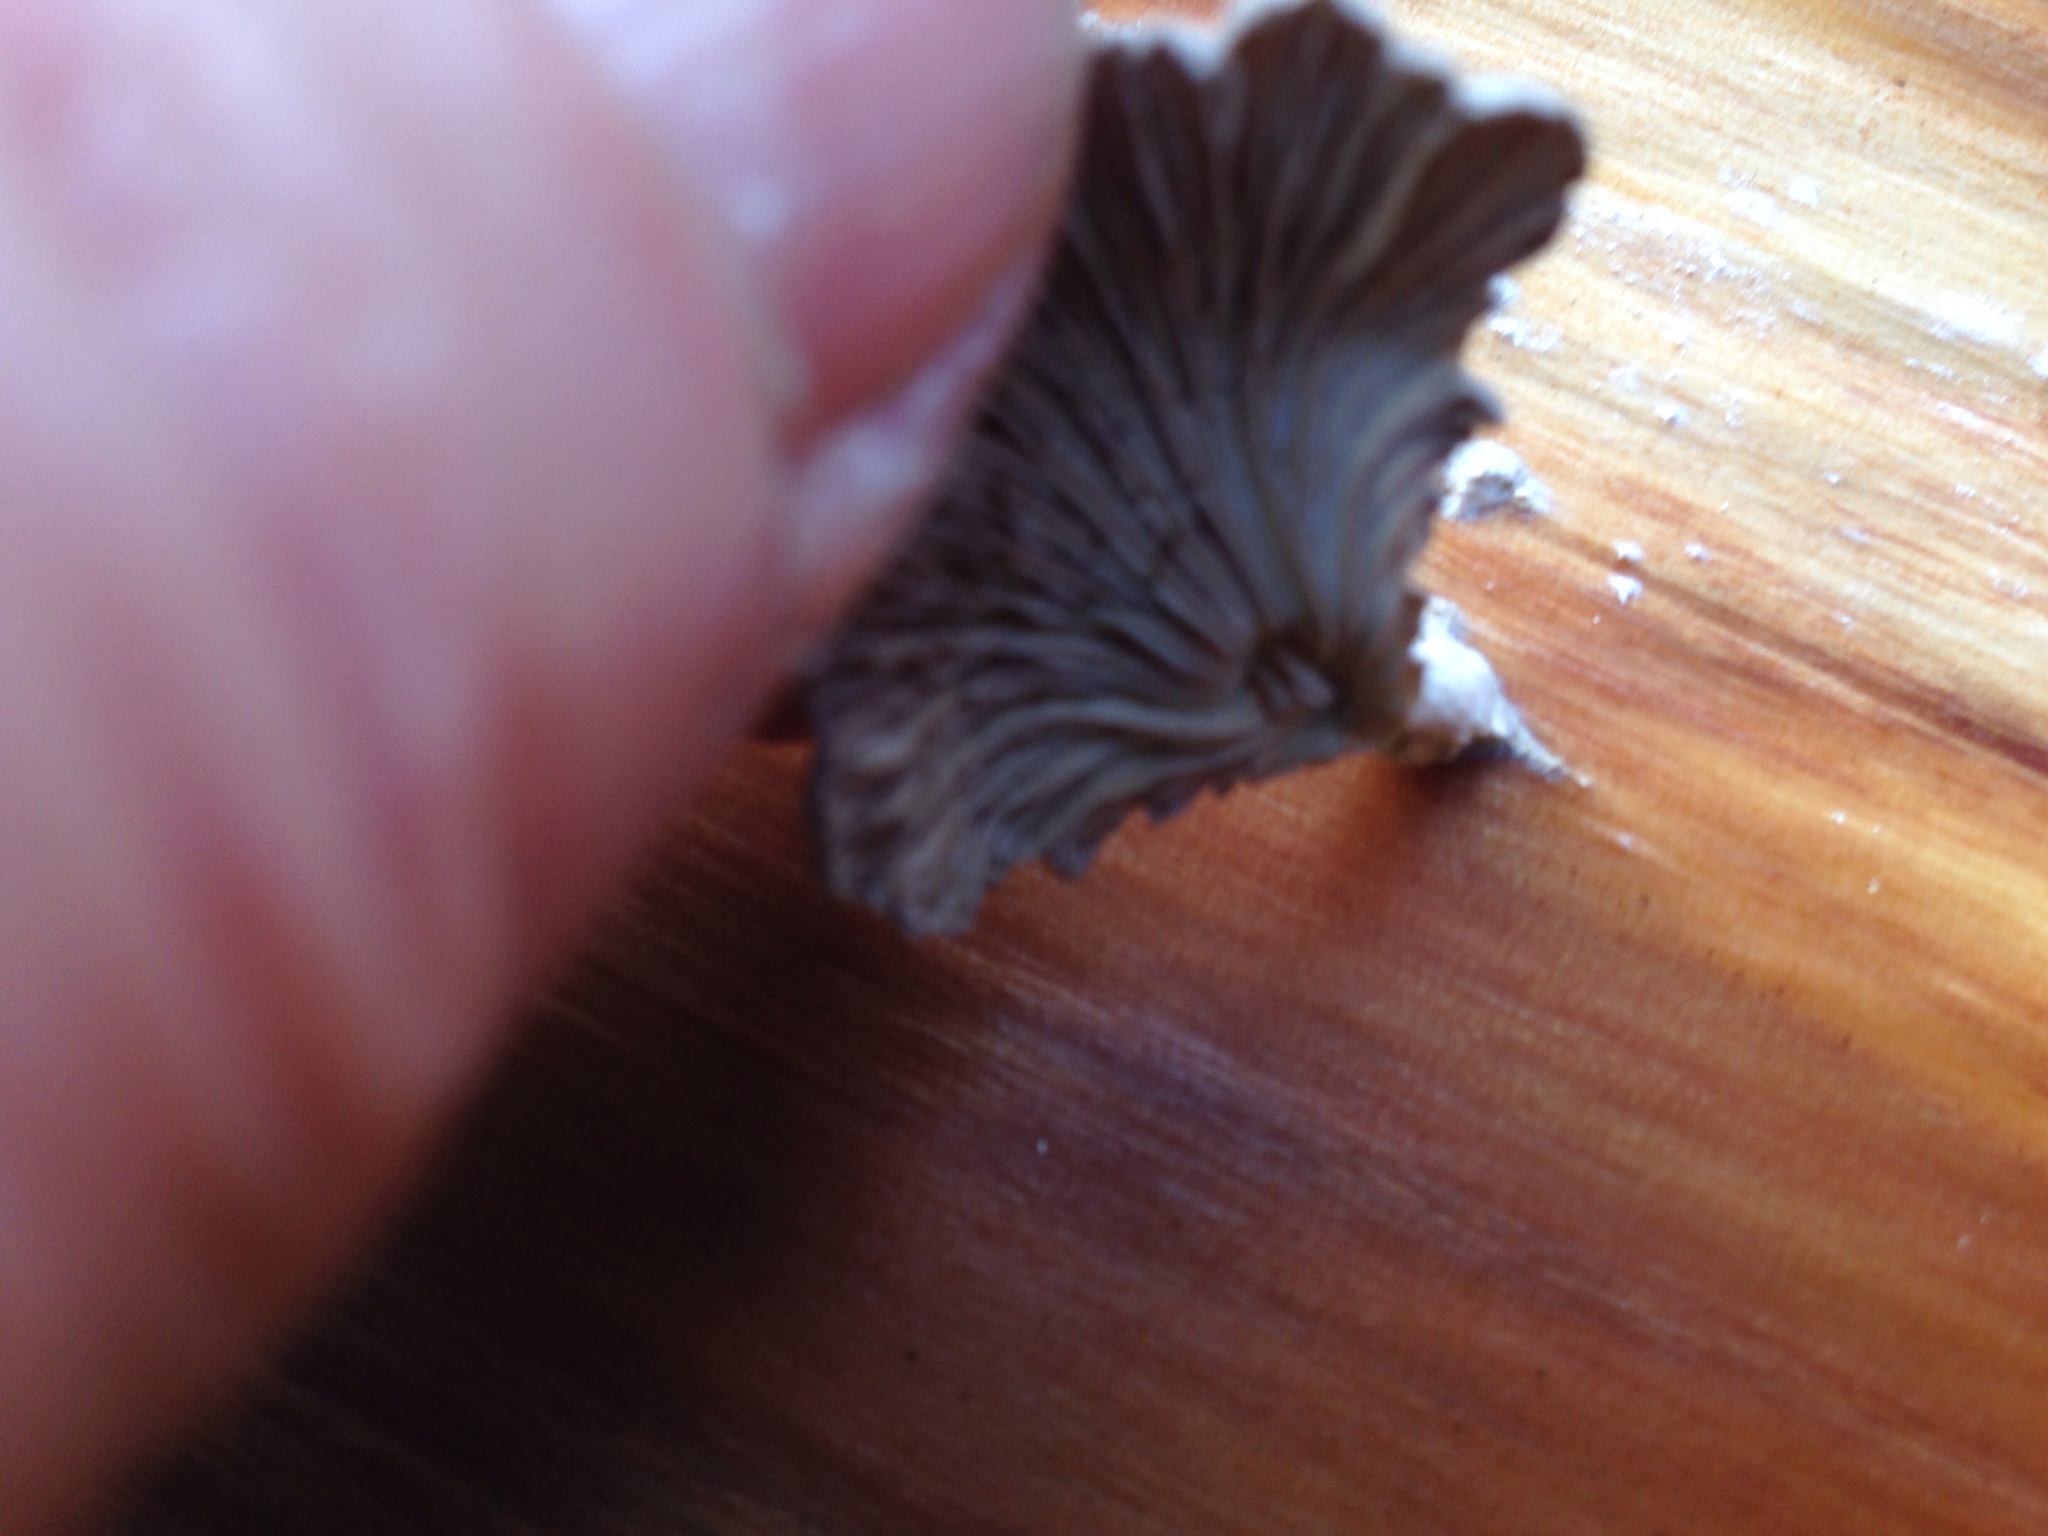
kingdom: Fungi
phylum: Basidiomycota
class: Agaricomycetes
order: Agaricales
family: Schizophyllaceae
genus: Schizophyllum
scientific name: Schizophyllum commune
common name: Common porecrust
